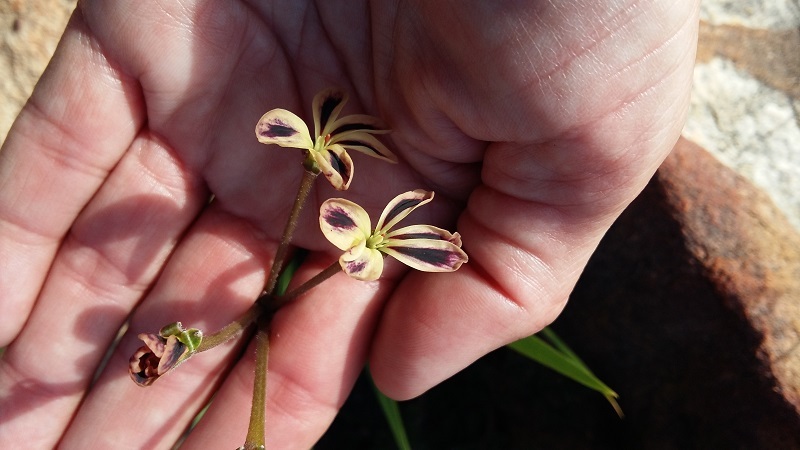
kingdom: Plantae
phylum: Tracheophyta
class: Magnoliopsida
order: Geraniales
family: Geraniaceae
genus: Pelargonium
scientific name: Pelargonium triste
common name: Night-scent pelargonium
